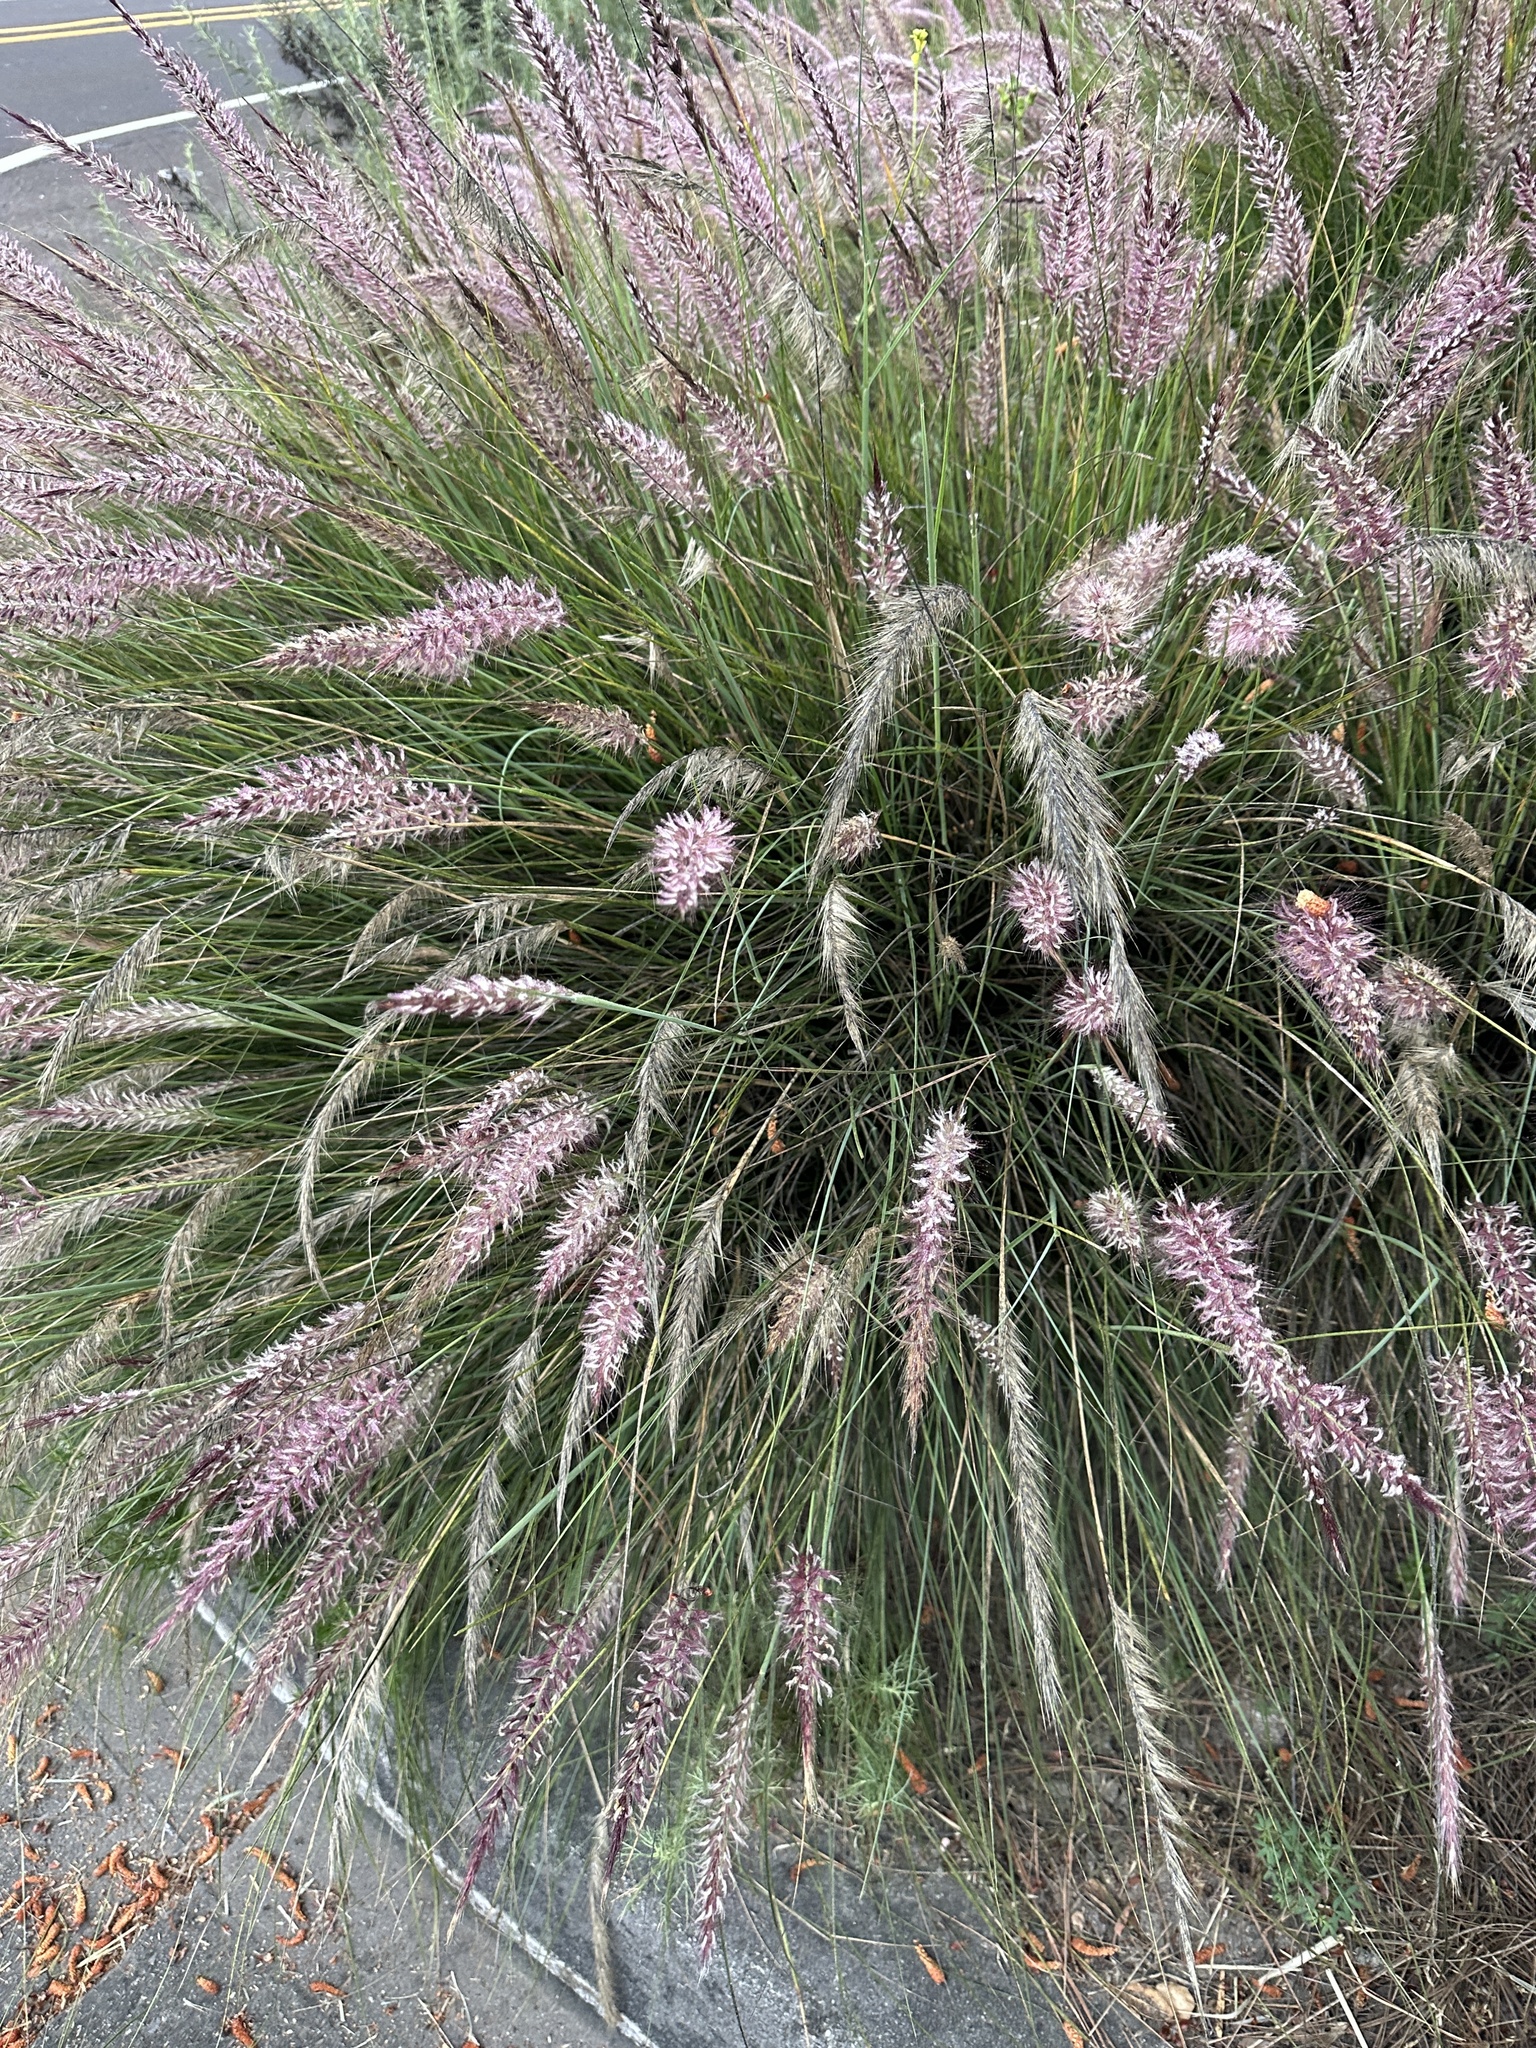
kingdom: Plantae
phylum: Tracheophyta
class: Liliopsida
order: Poales
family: Poaceae
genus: Cenchrus
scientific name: Cenchrus setaceus
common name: Crimson fountaingrass
